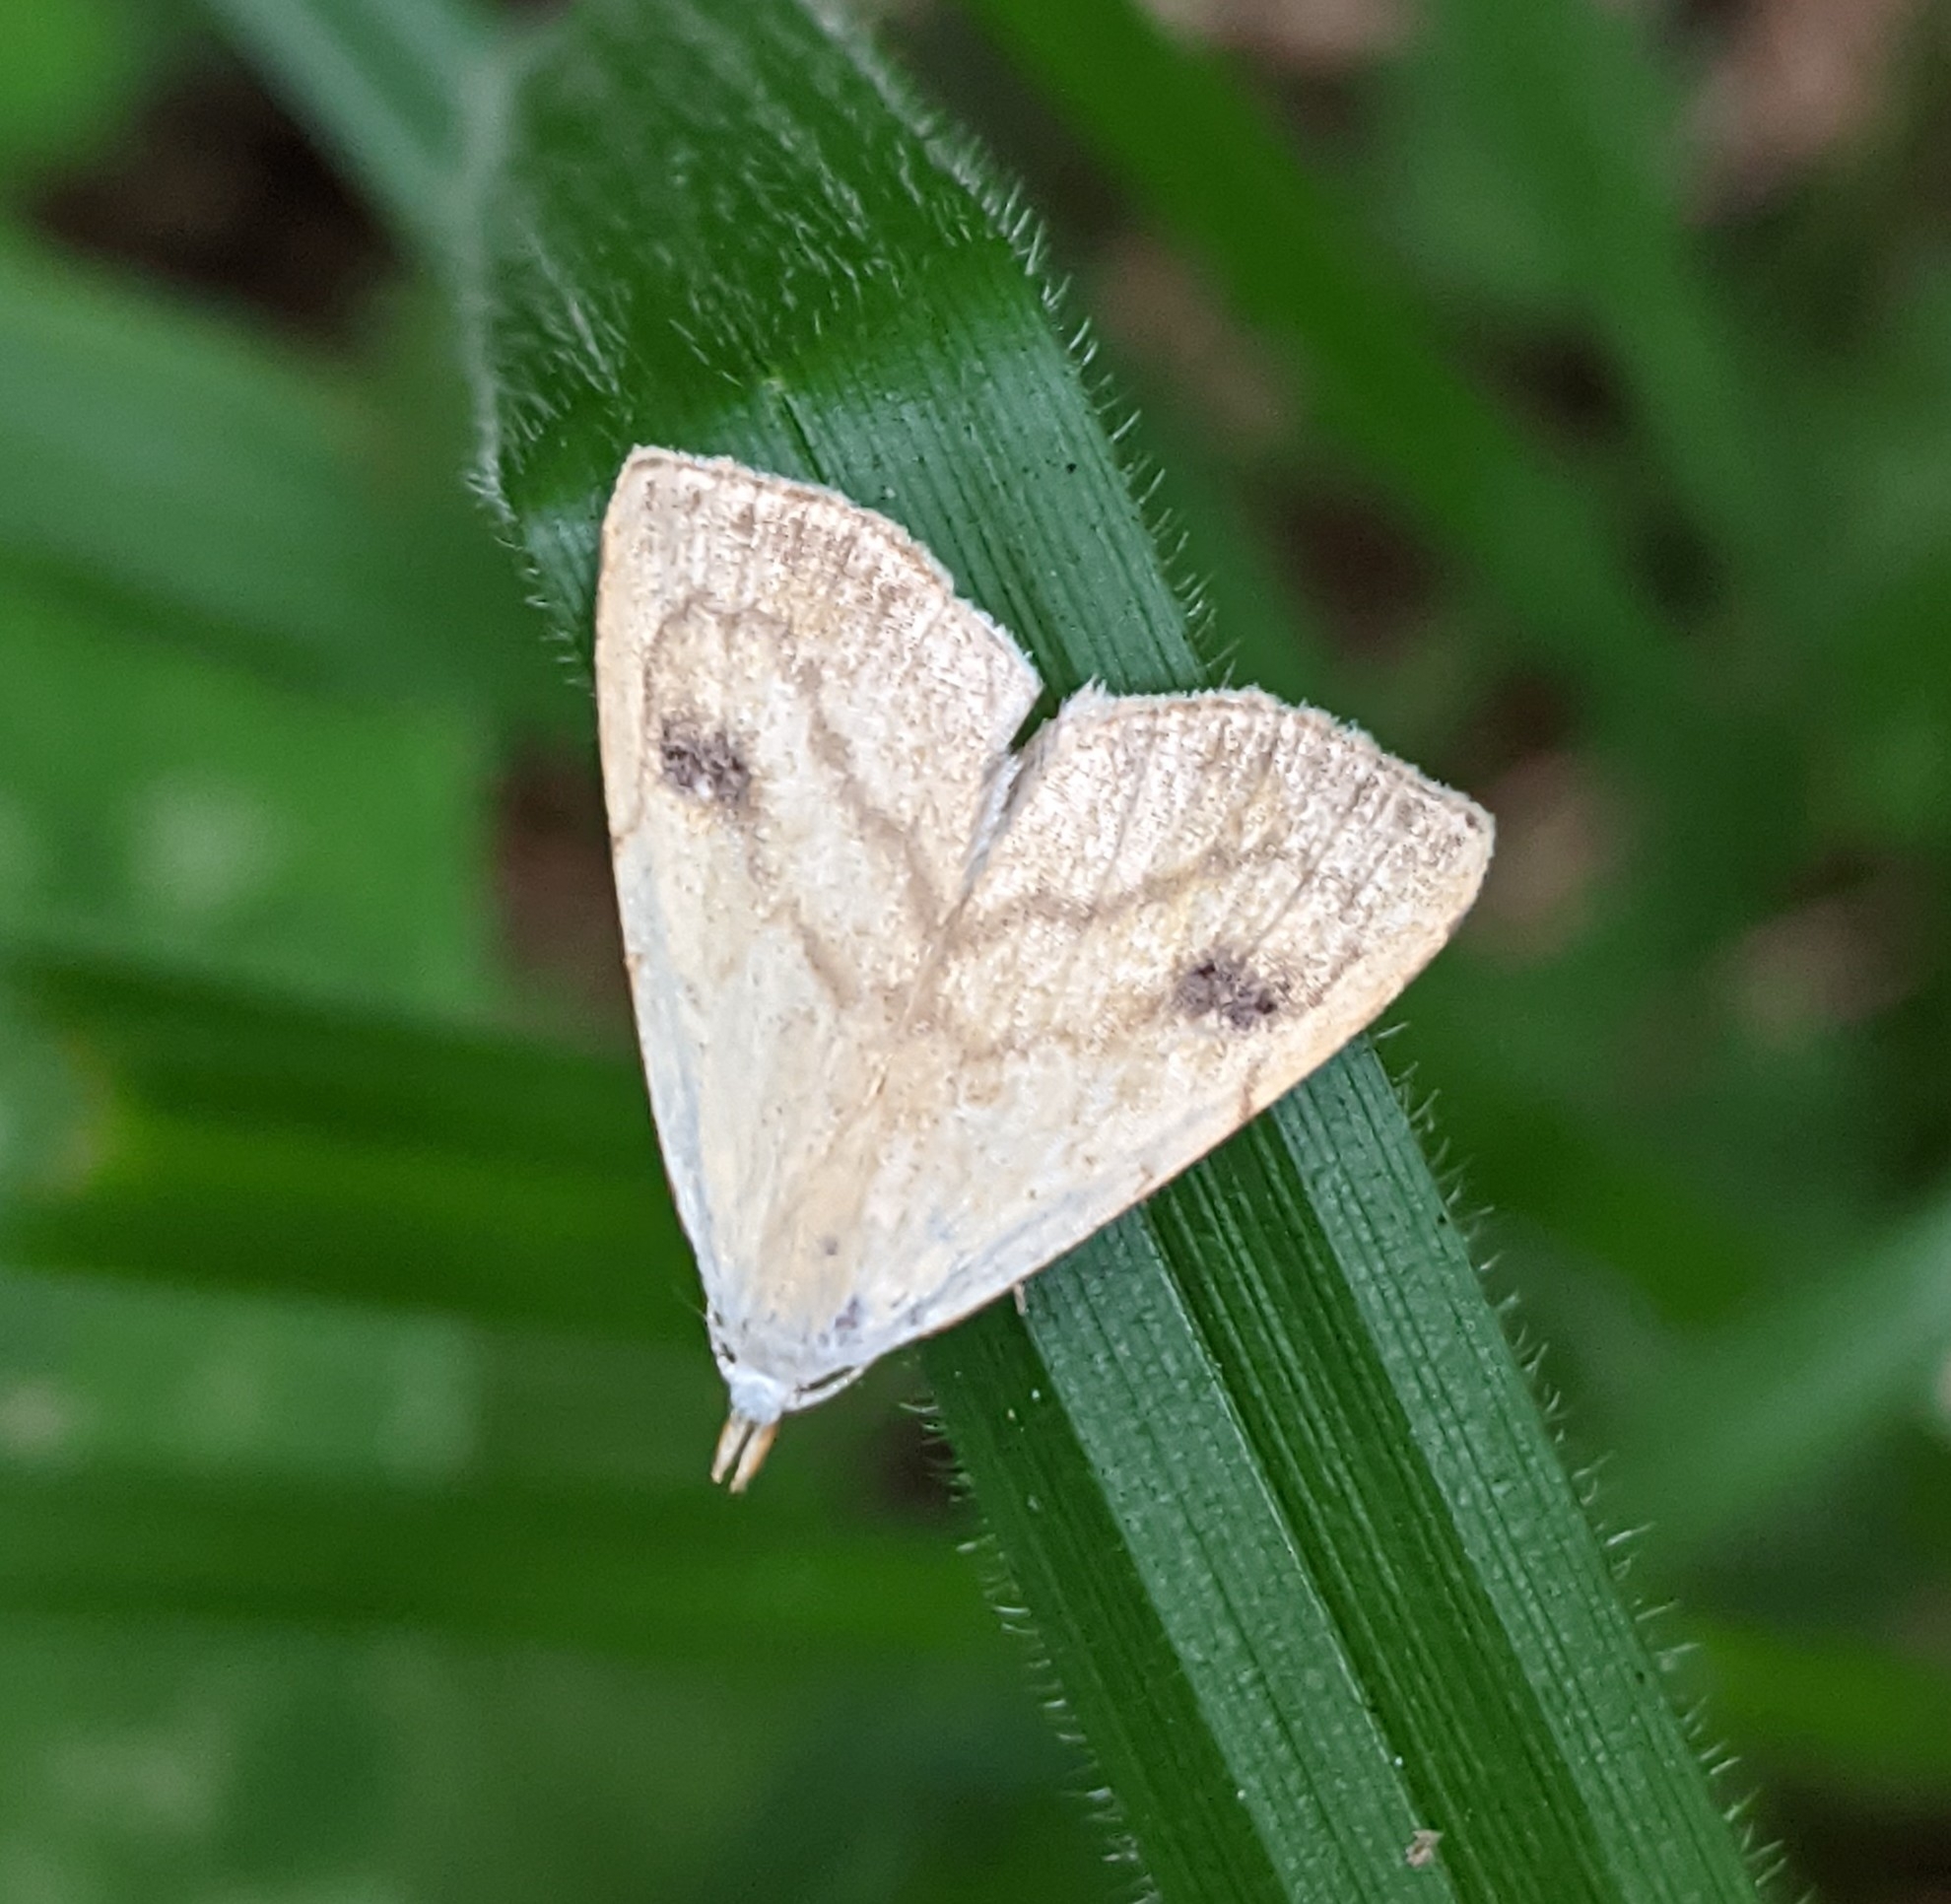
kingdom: Animalia
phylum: Arthropoda
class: Insecta
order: Lepidoptera
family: Erebidae
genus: Rivula
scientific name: Rivula sericealis
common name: Straw dot
